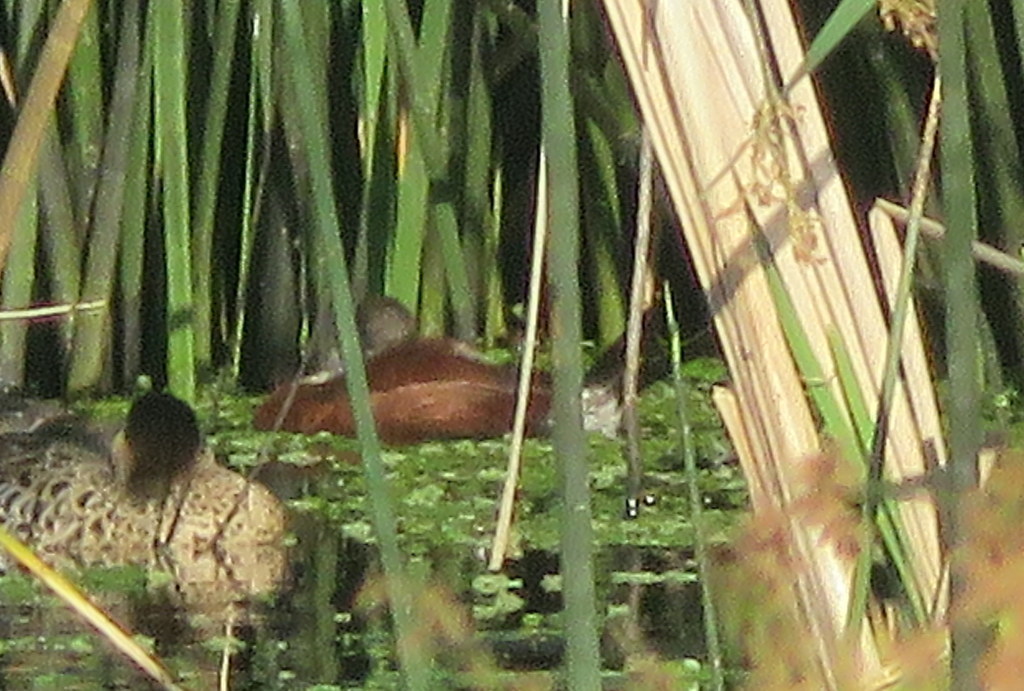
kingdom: Animalia
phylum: Chordata
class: Aves
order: Anseriformes
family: Anatidae
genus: Oxyura
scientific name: Oxyura vittata
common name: Lake duck
